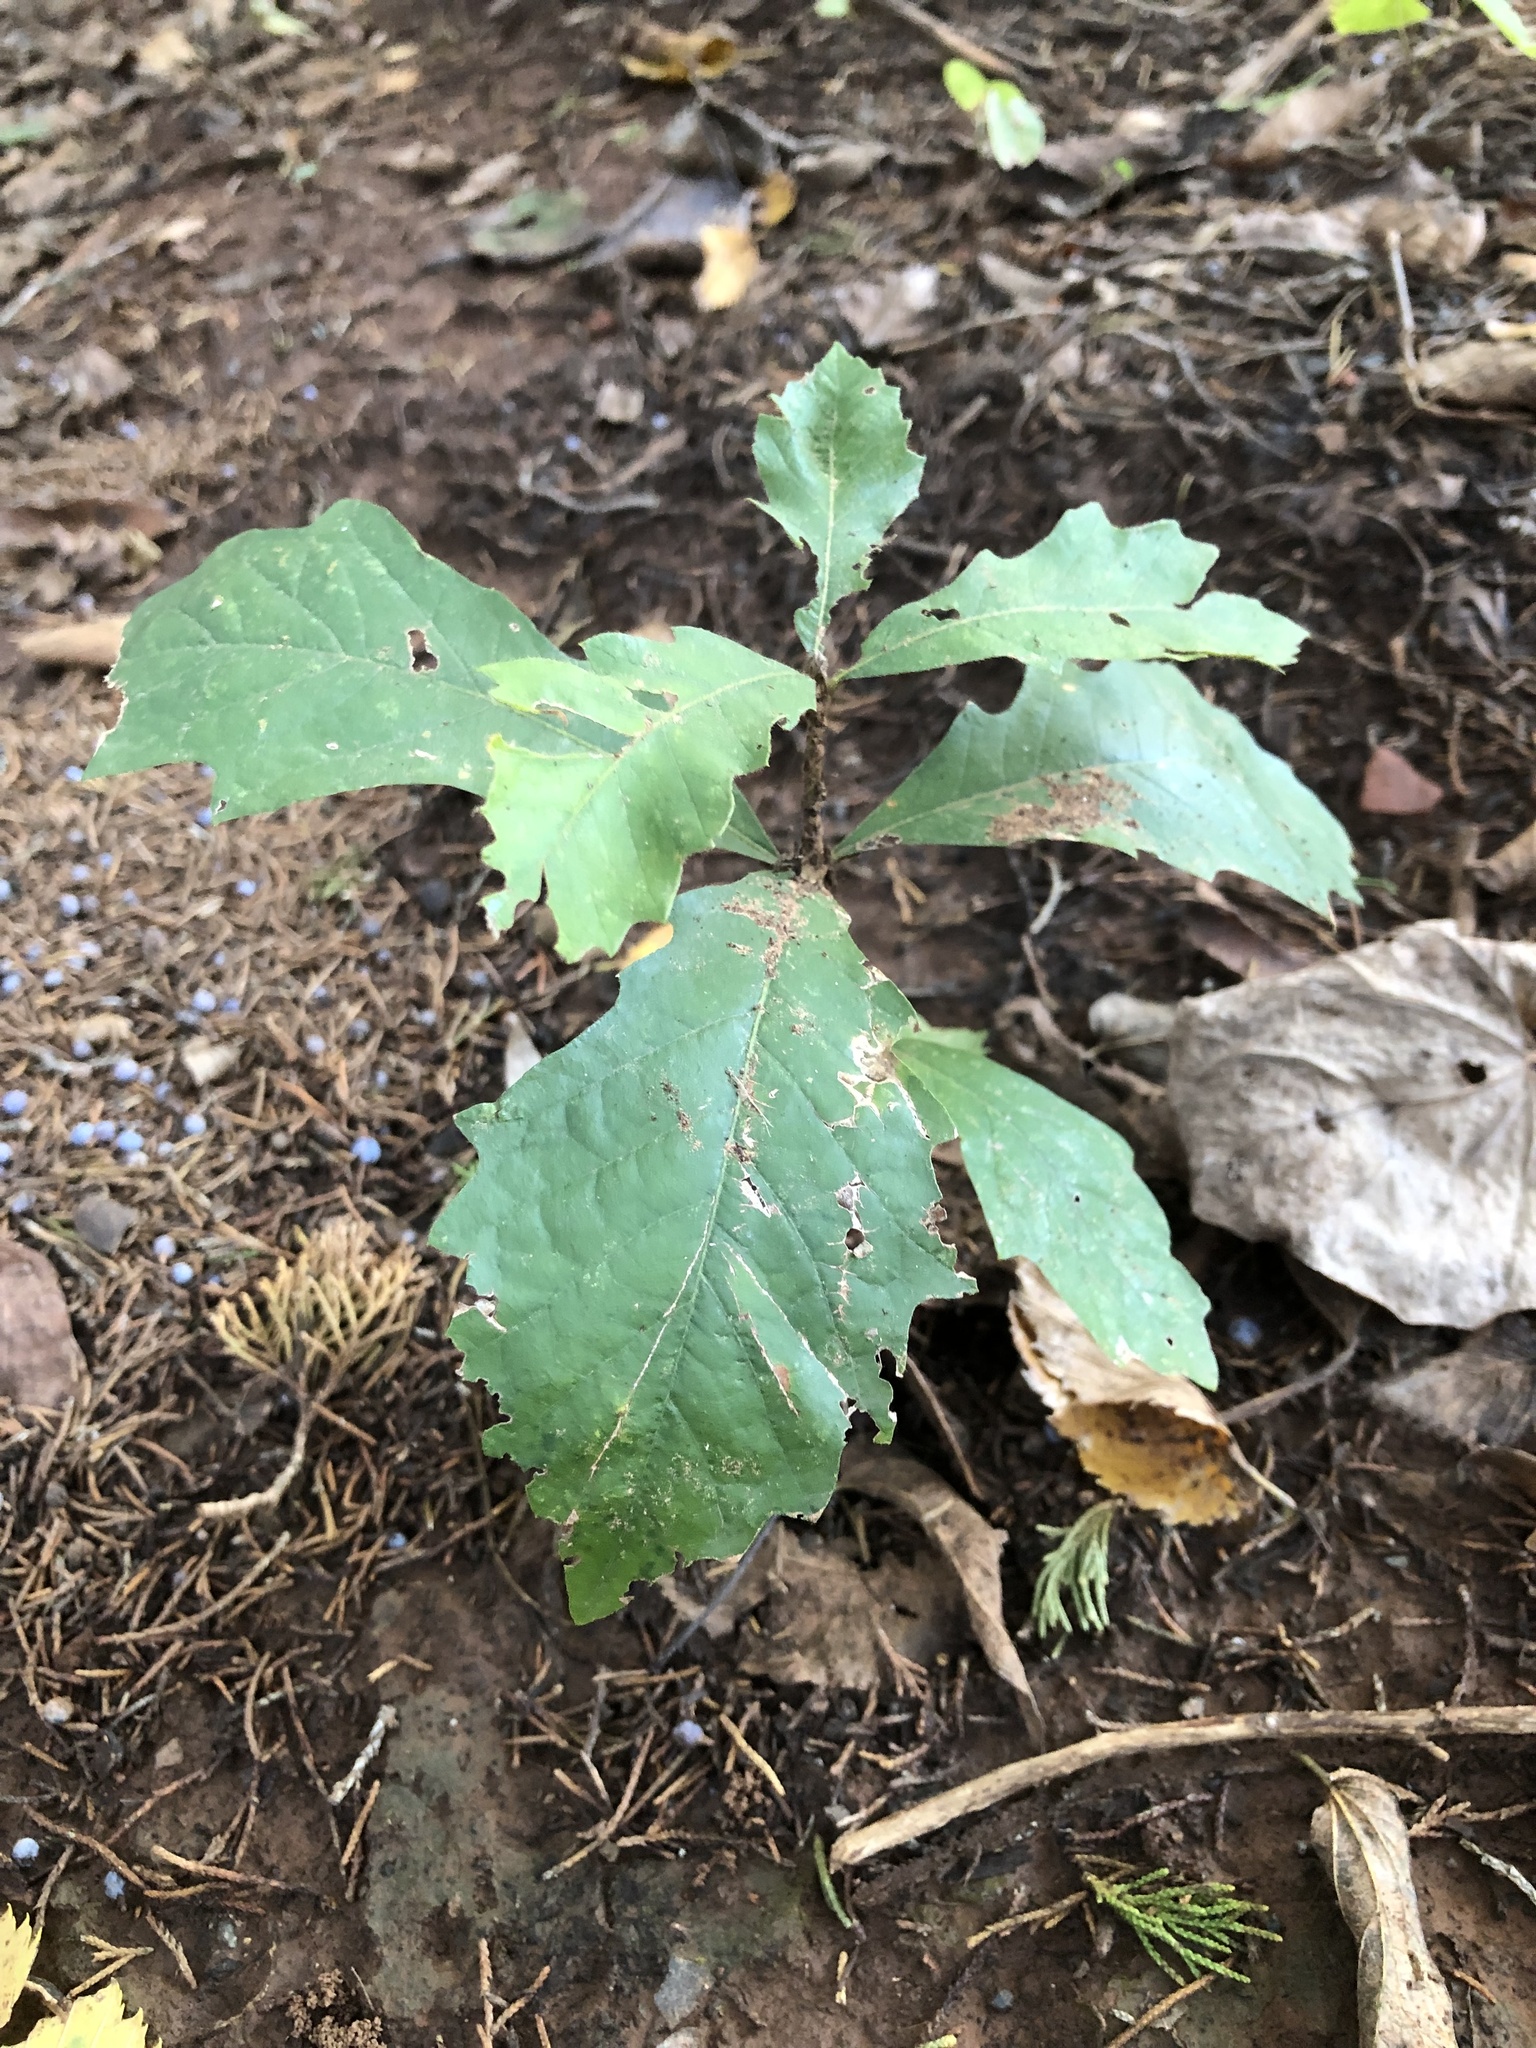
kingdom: Plantae
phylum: Tracheophyta
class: Magnoliopsida
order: Fagales
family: Fagaceae
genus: Quercus
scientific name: Quercus muehlenbergii
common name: Chinkapin oak
